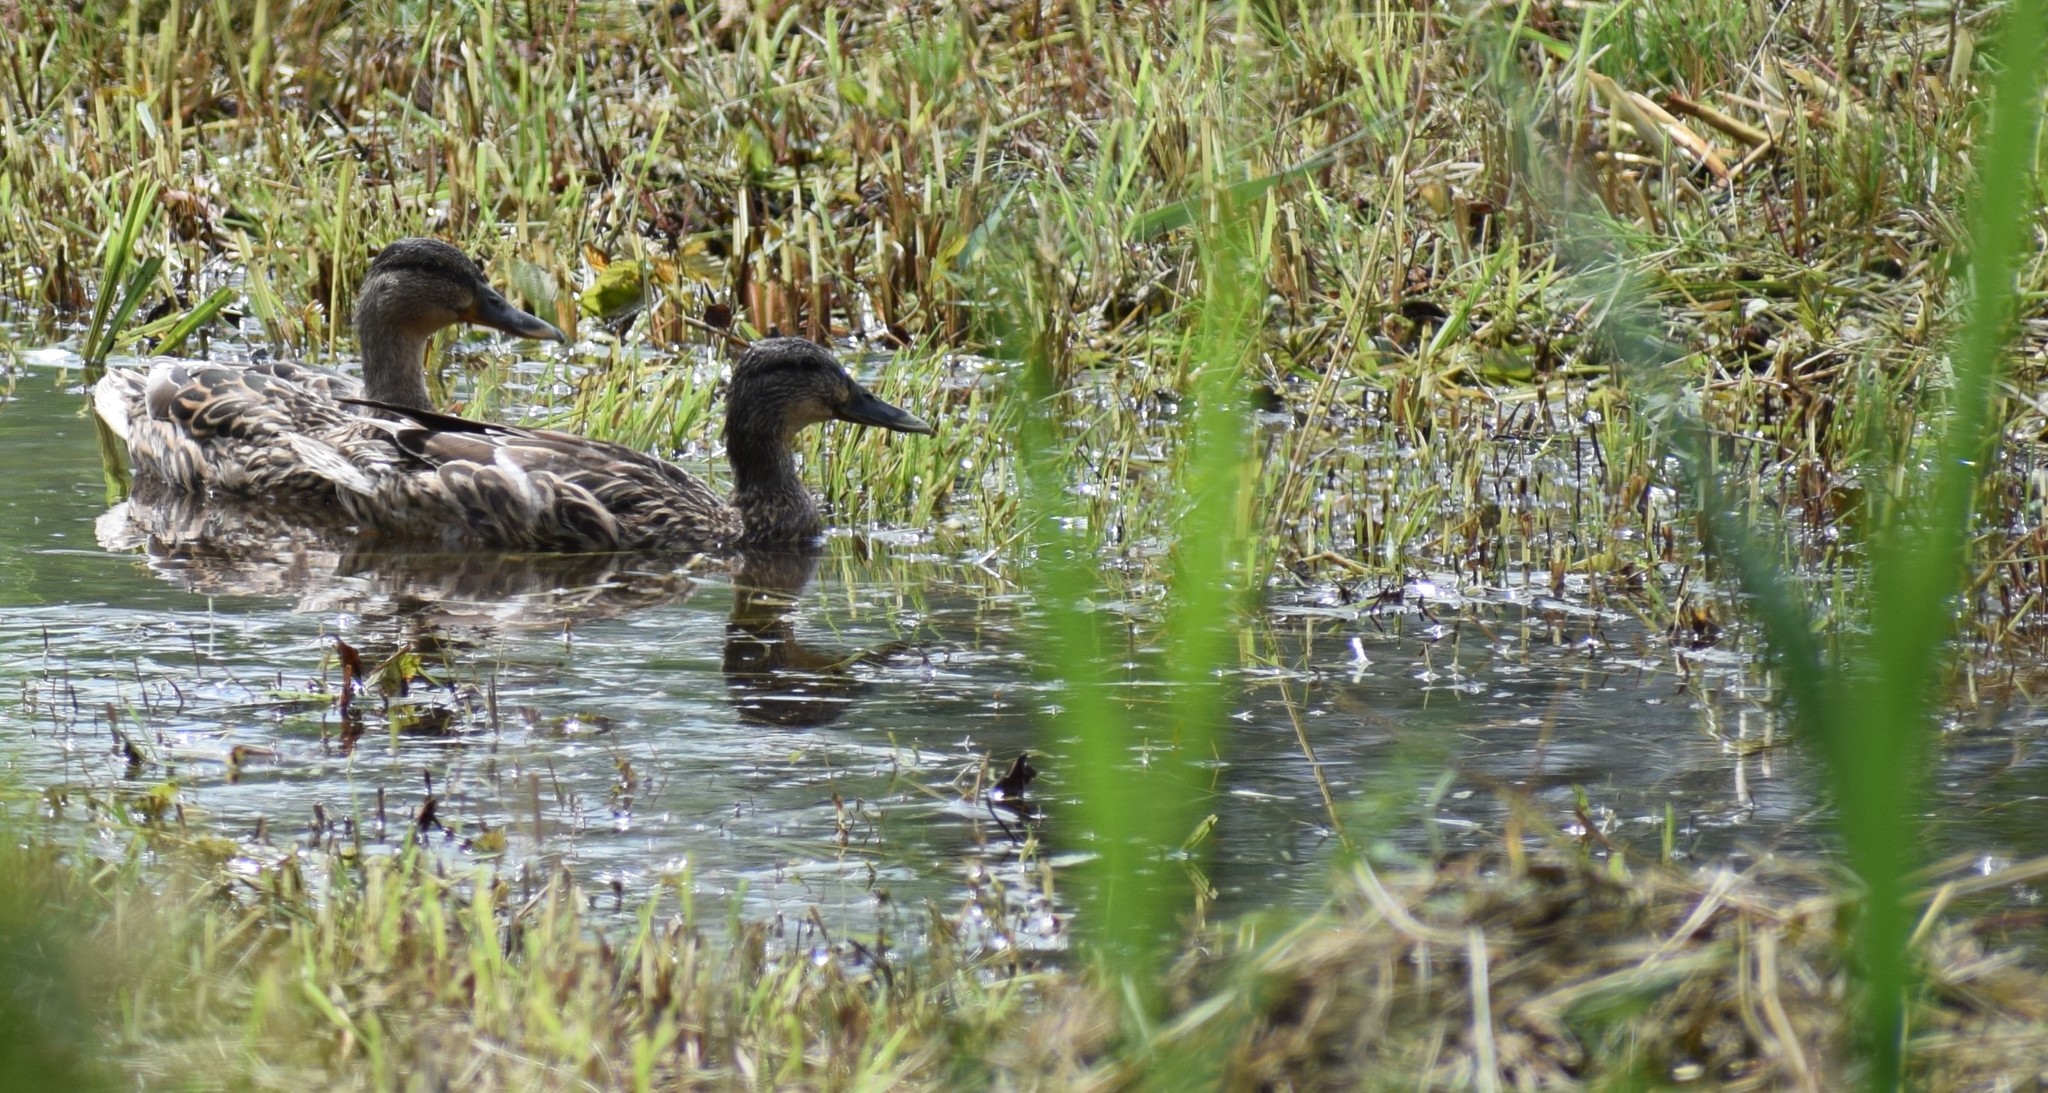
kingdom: Animalia
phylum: Chordata
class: Aves
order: Anseriformes
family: Anatidae
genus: Anas
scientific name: Anas platyrhynchos
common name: Mallard
